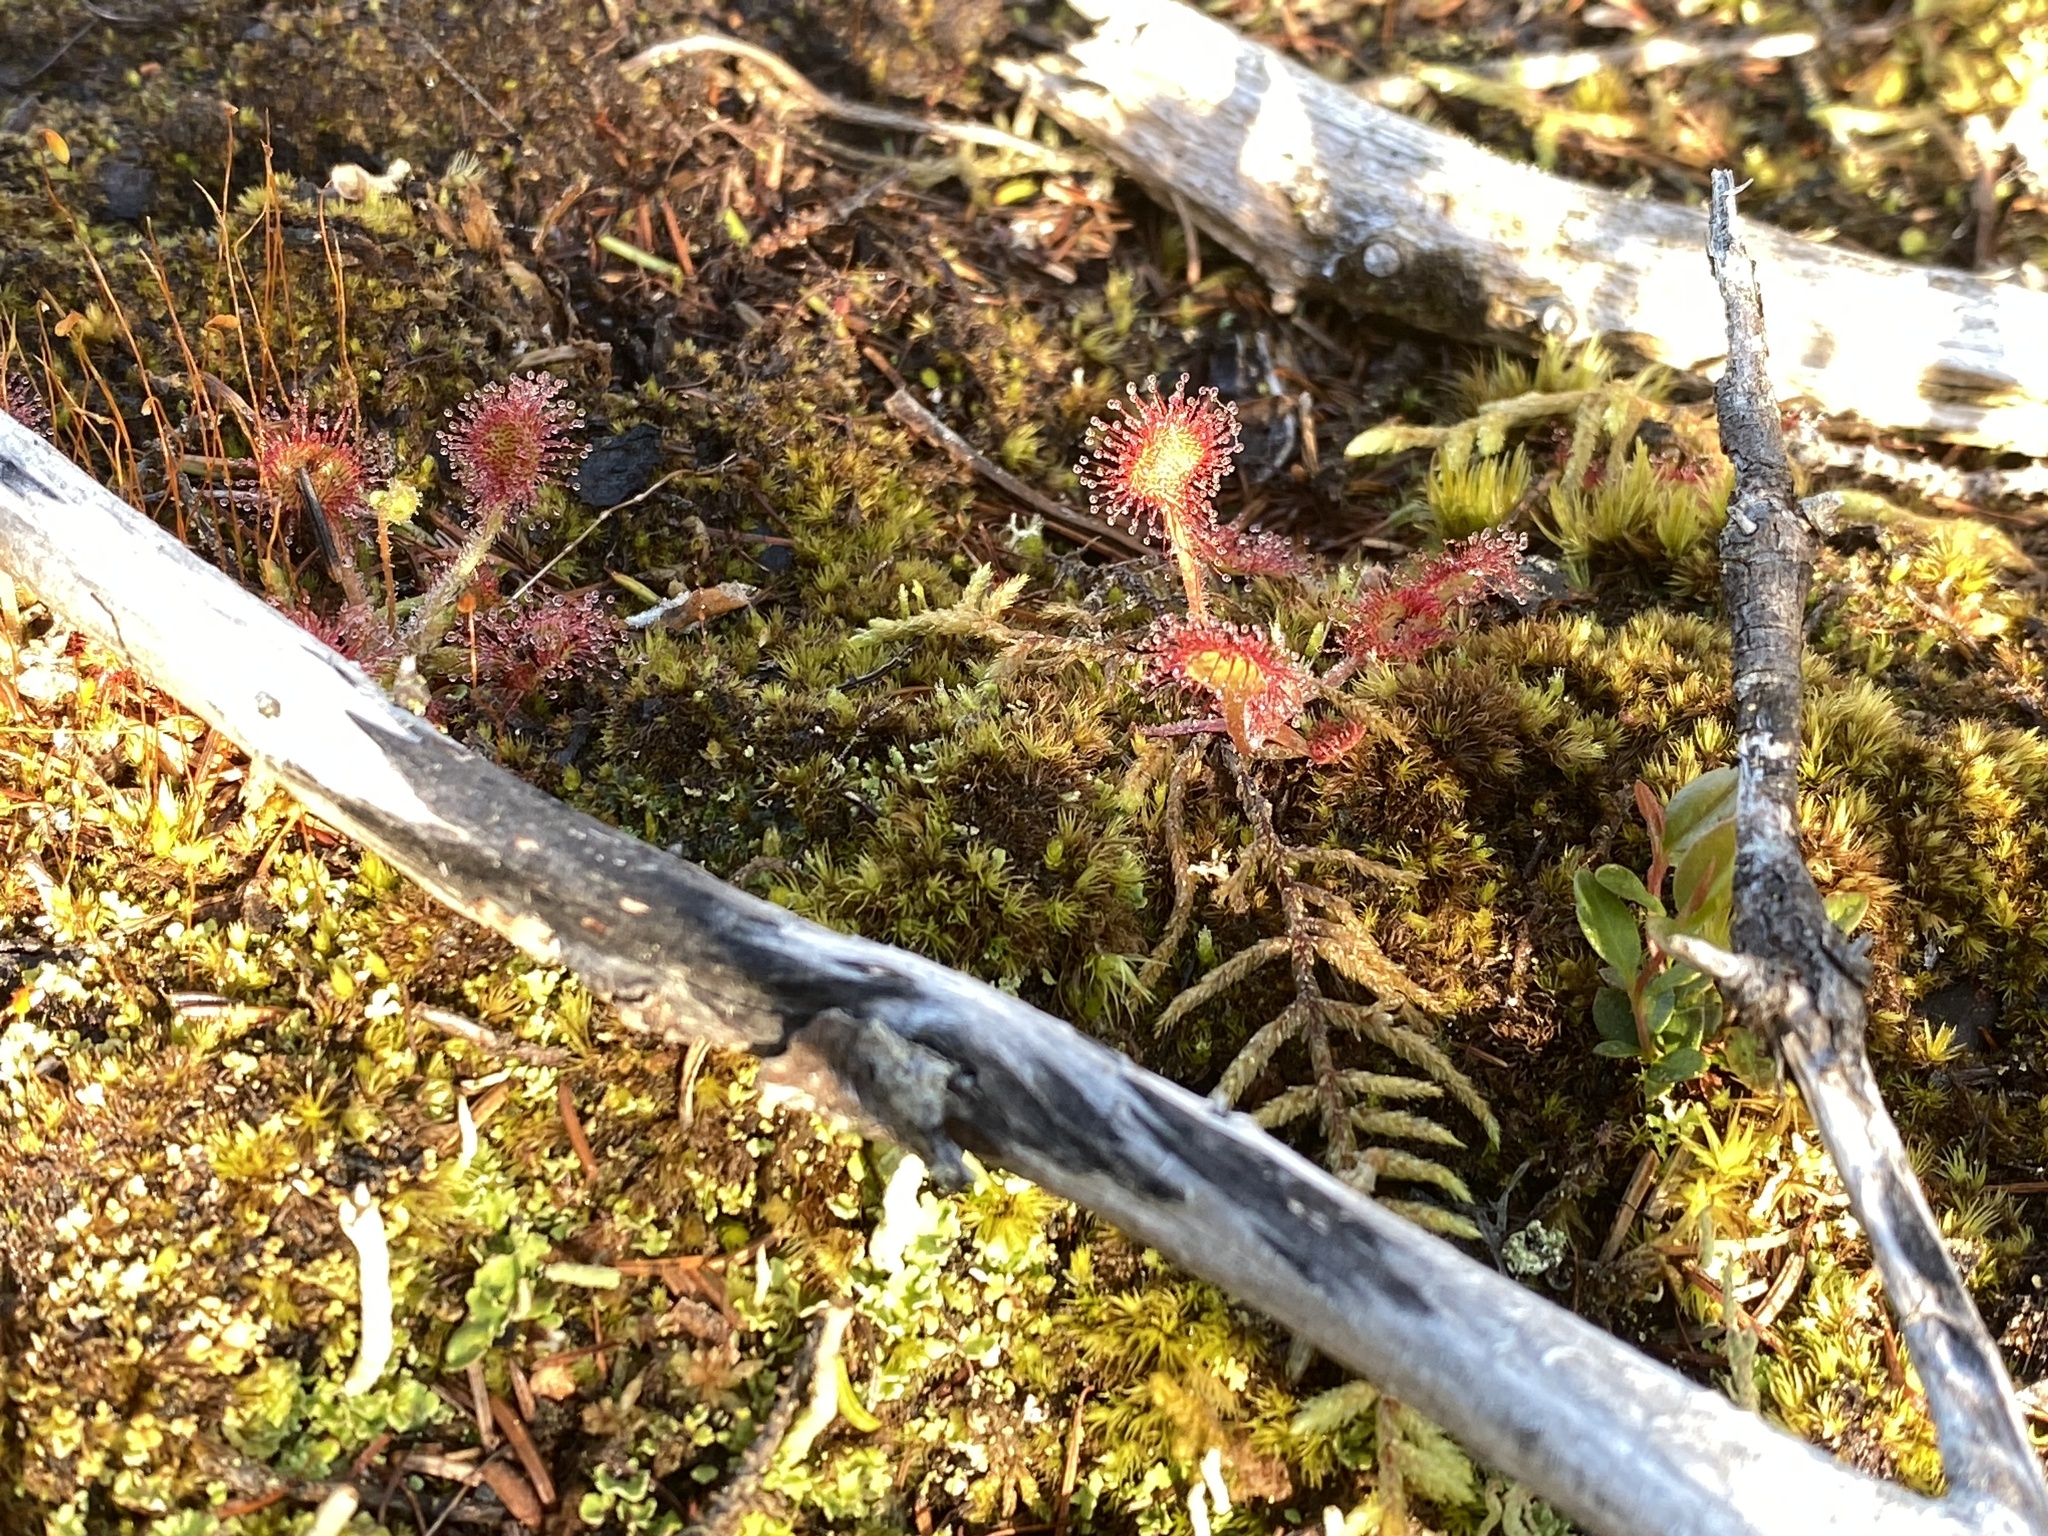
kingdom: Plantae
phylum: Tracheophyta
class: Magnoliopsida
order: Caryophyllales
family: Droseraceae
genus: Drosera
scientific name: Drosera rotundifolia
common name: Round-leaved sundew
